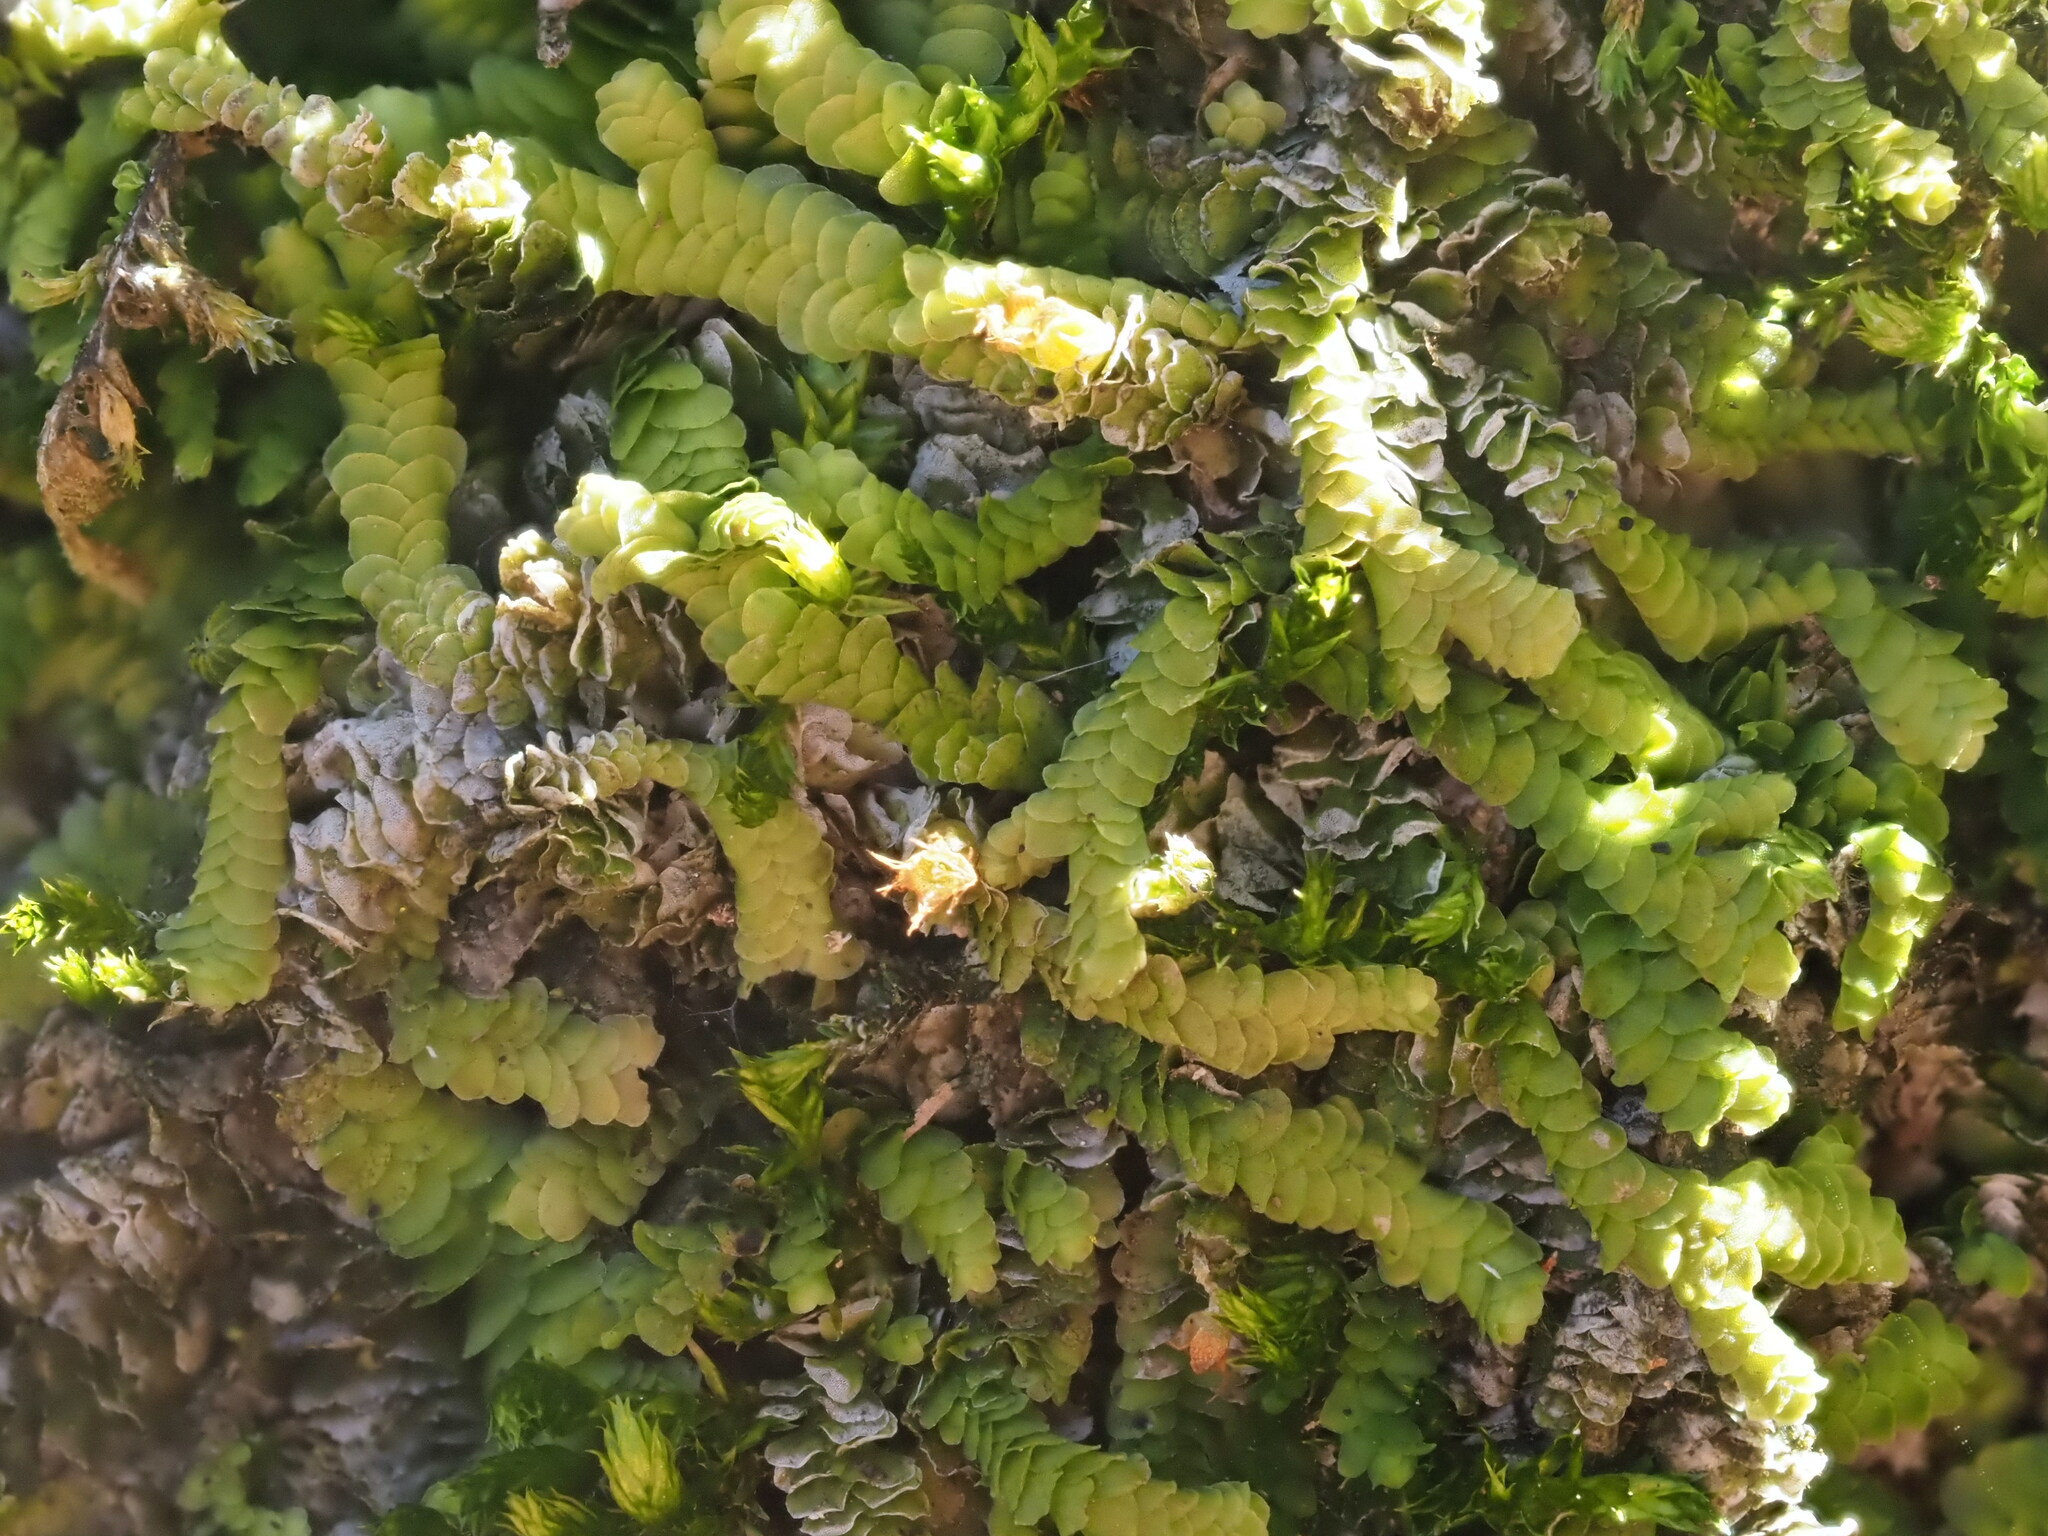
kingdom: Plantae
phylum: Marchantiophyta
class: Jungermanniopsida
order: Porellales
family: Lejeuneaceae
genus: Acrolejeunea
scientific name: Acrolejeunea sandvicensis
